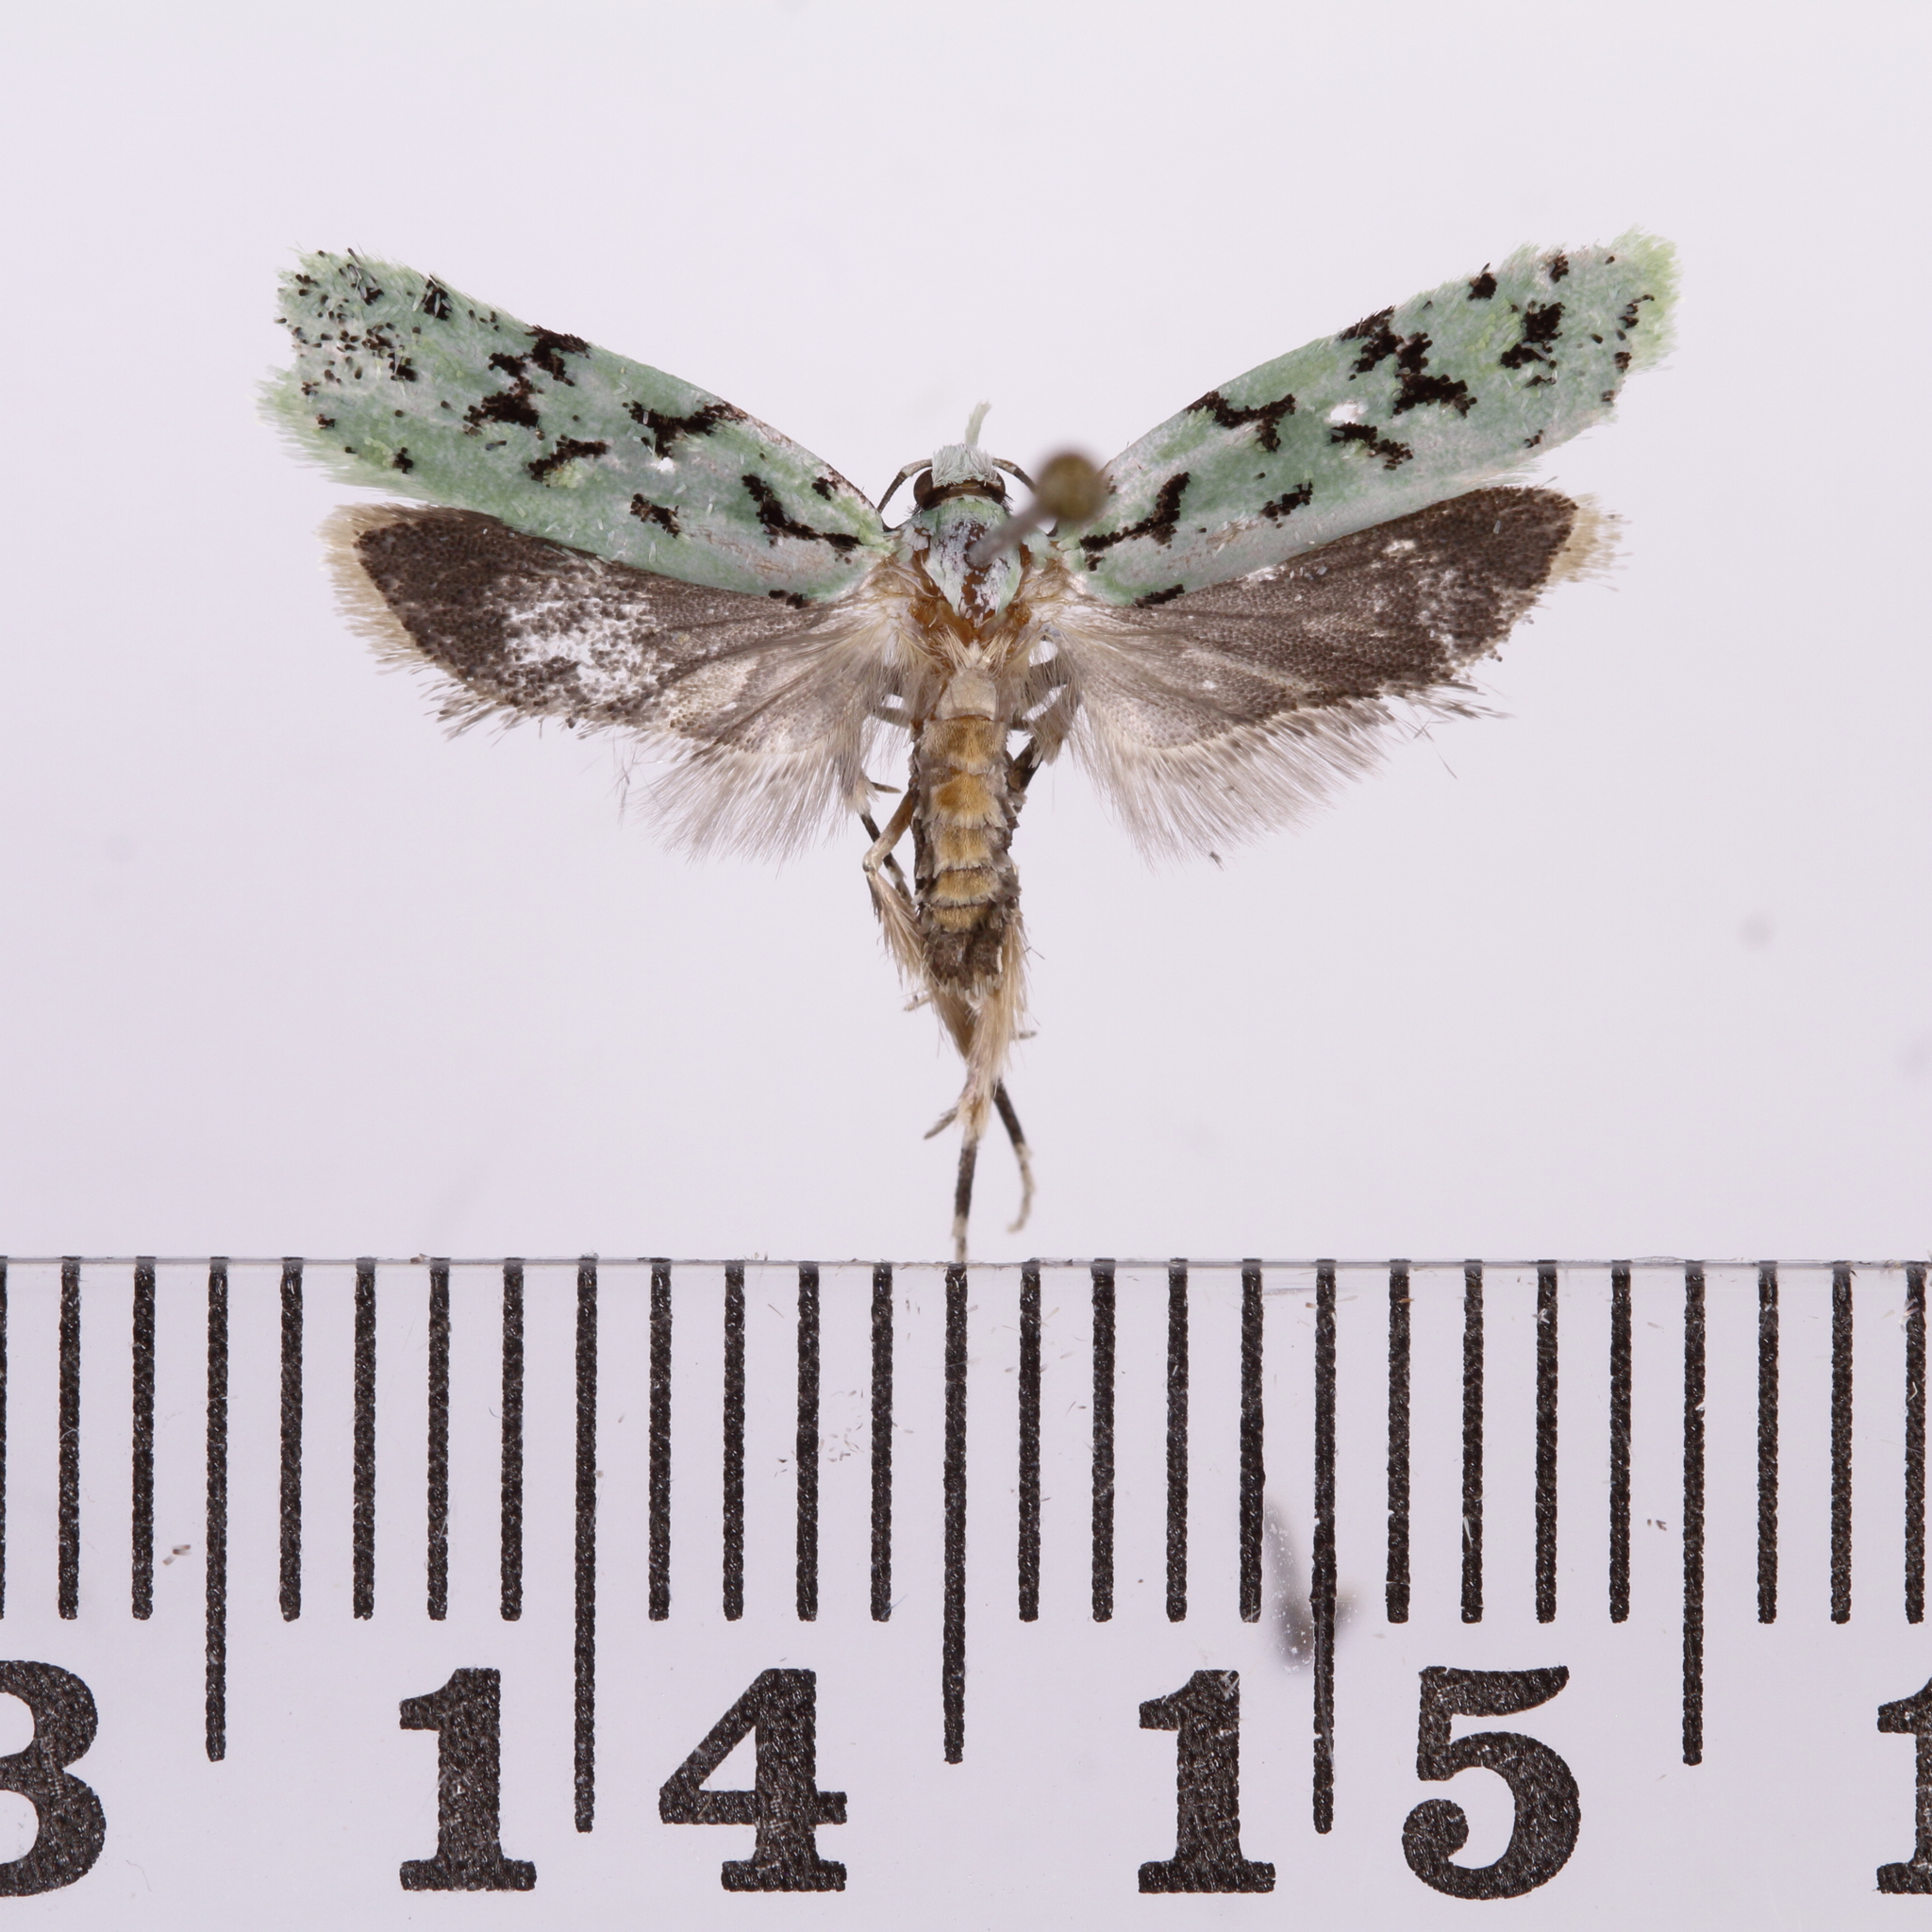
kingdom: Animalia
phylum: Arthropoda
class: Insecta
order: Lepidoptera
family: Oecophoridae
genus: Izatha
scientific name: Izatha peroneanella
